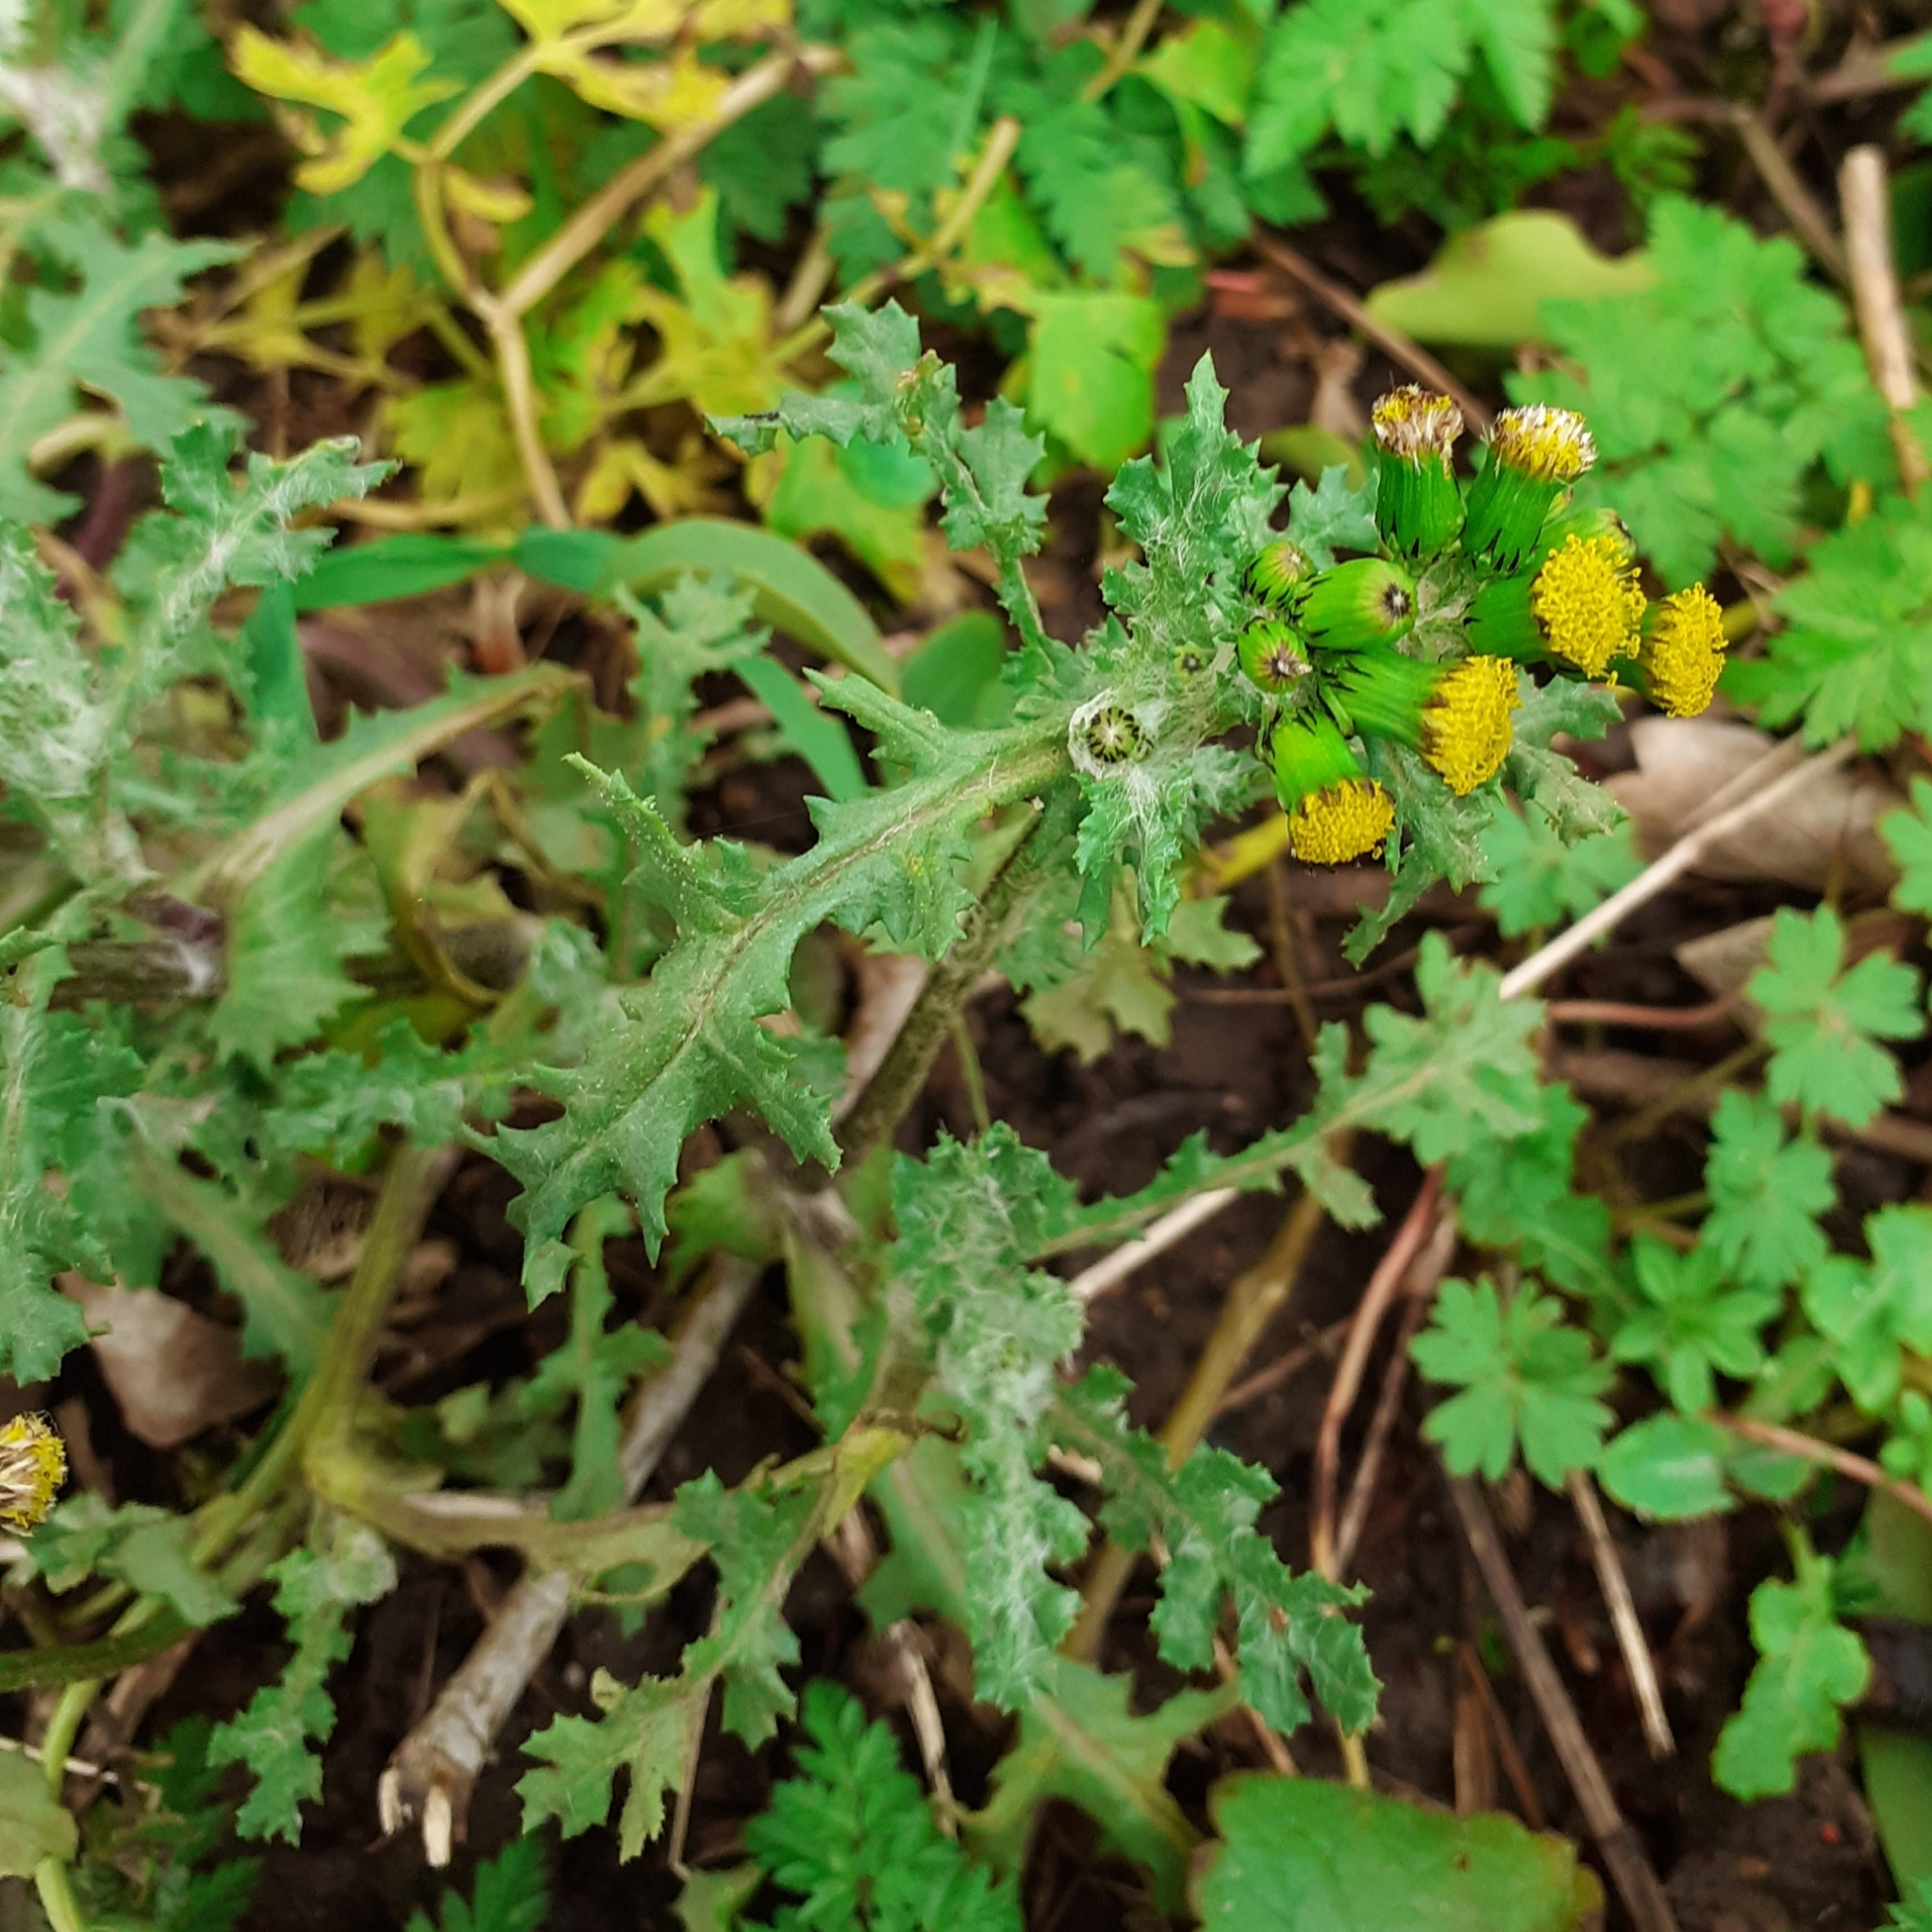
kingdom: Plantae
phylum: Tracheophyta
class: Magnoliopsida
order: Asterales
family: Asteraceae
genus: Senecio
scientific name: Senecio vulgaris
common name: Old-man-in-the-spring
